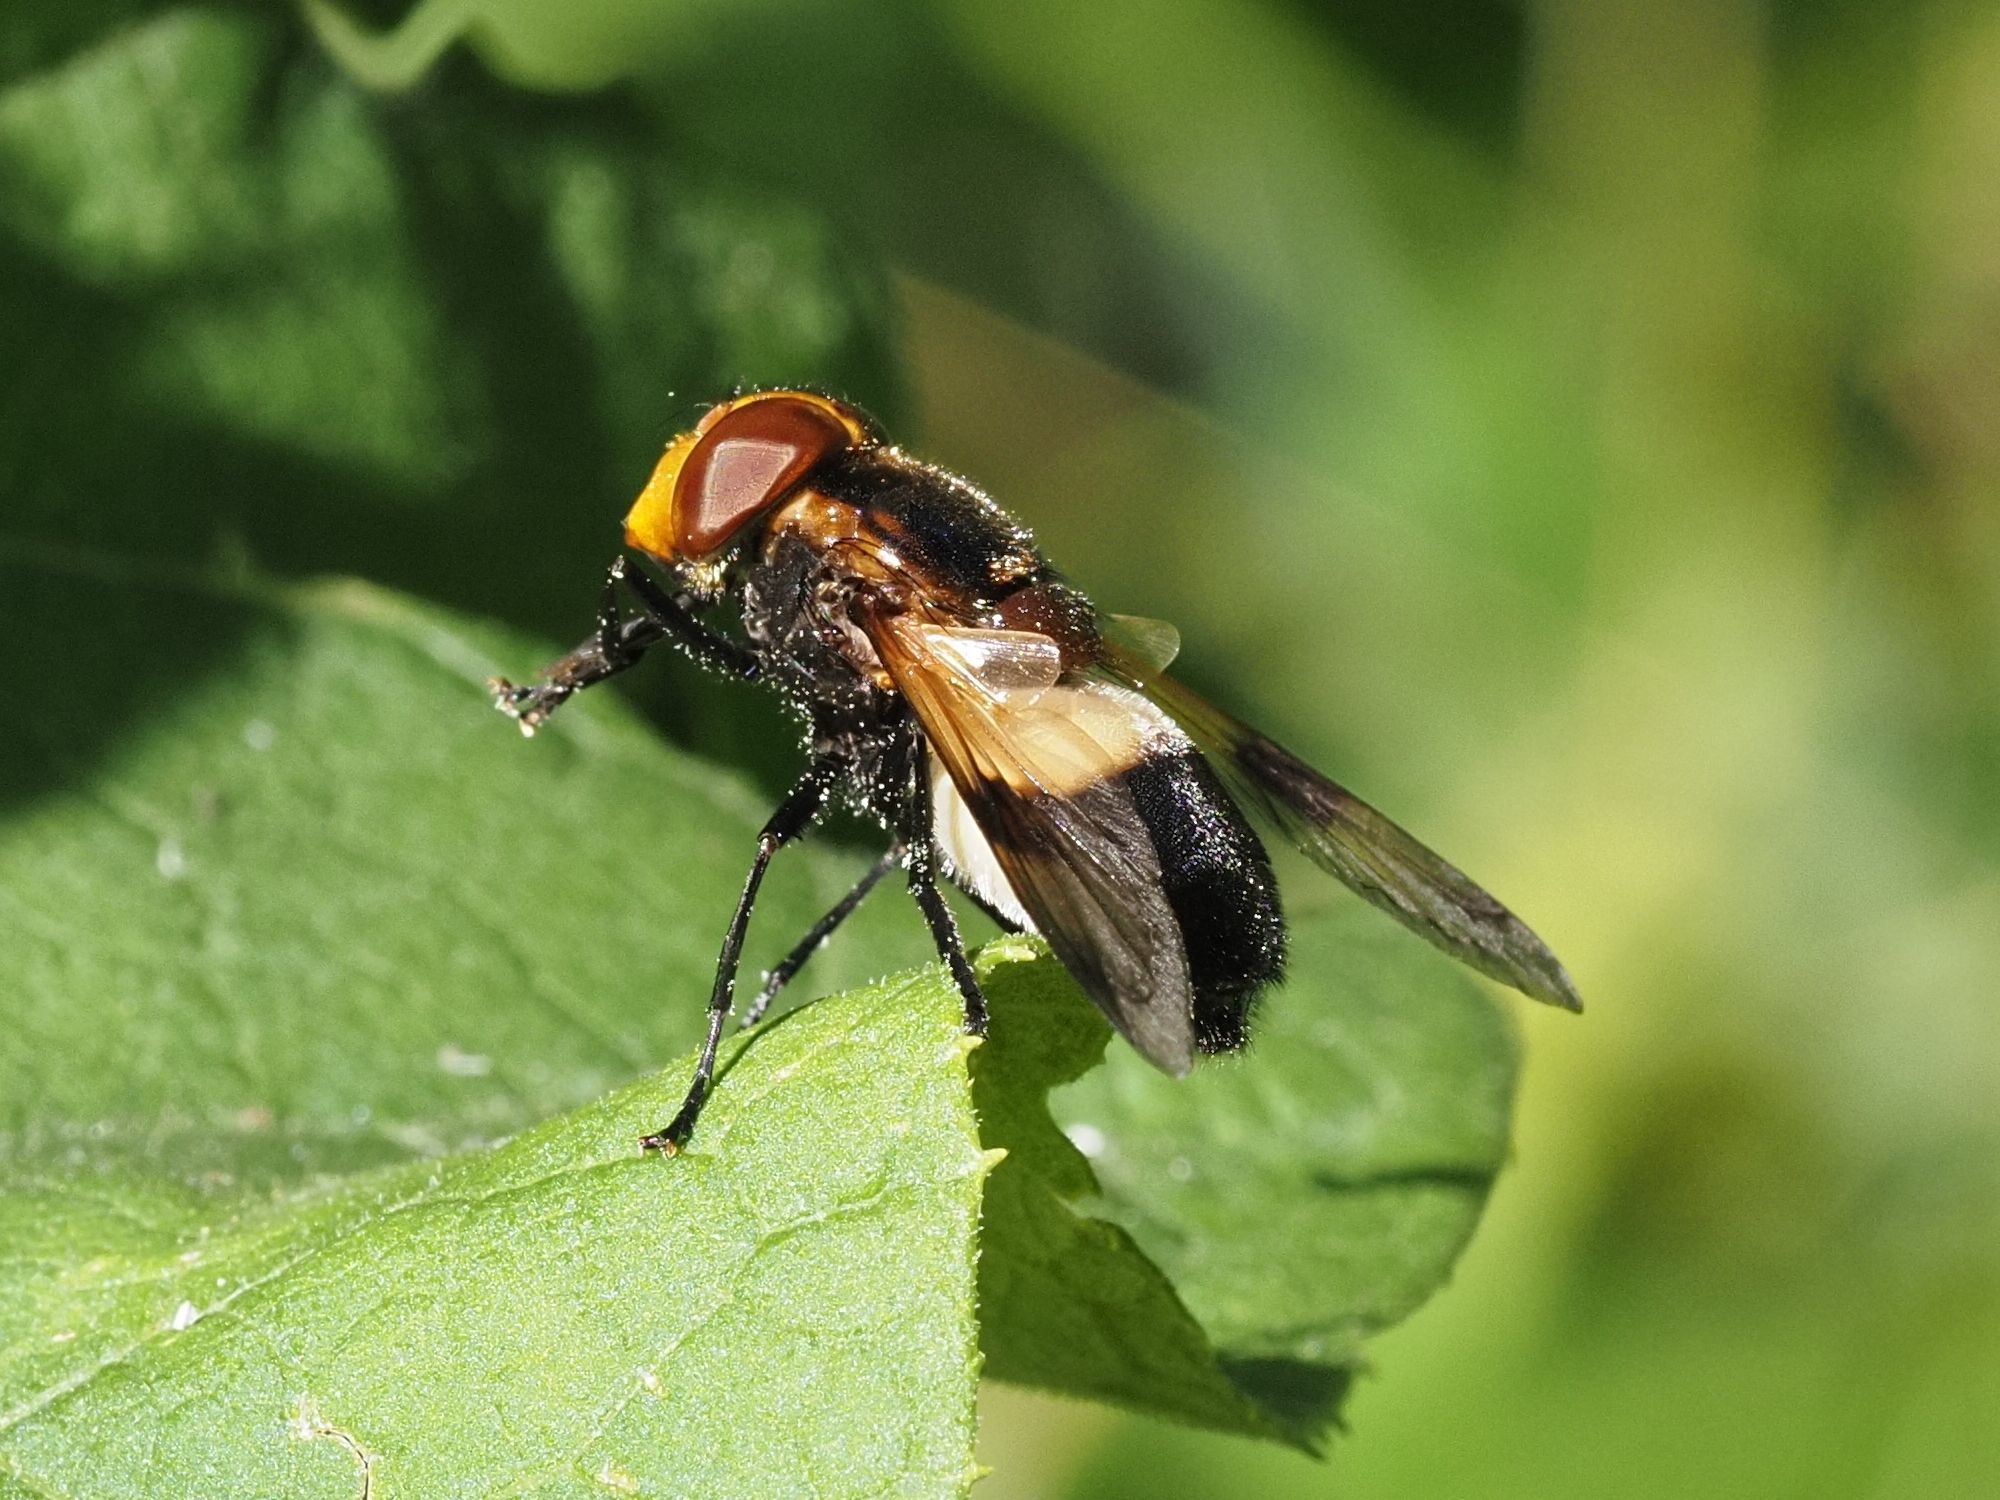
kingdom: Animalia
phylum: Arthropoda
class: Insecta
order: Diptera
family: Syrphidae
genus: Volucella
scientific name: Volucella pellucens
